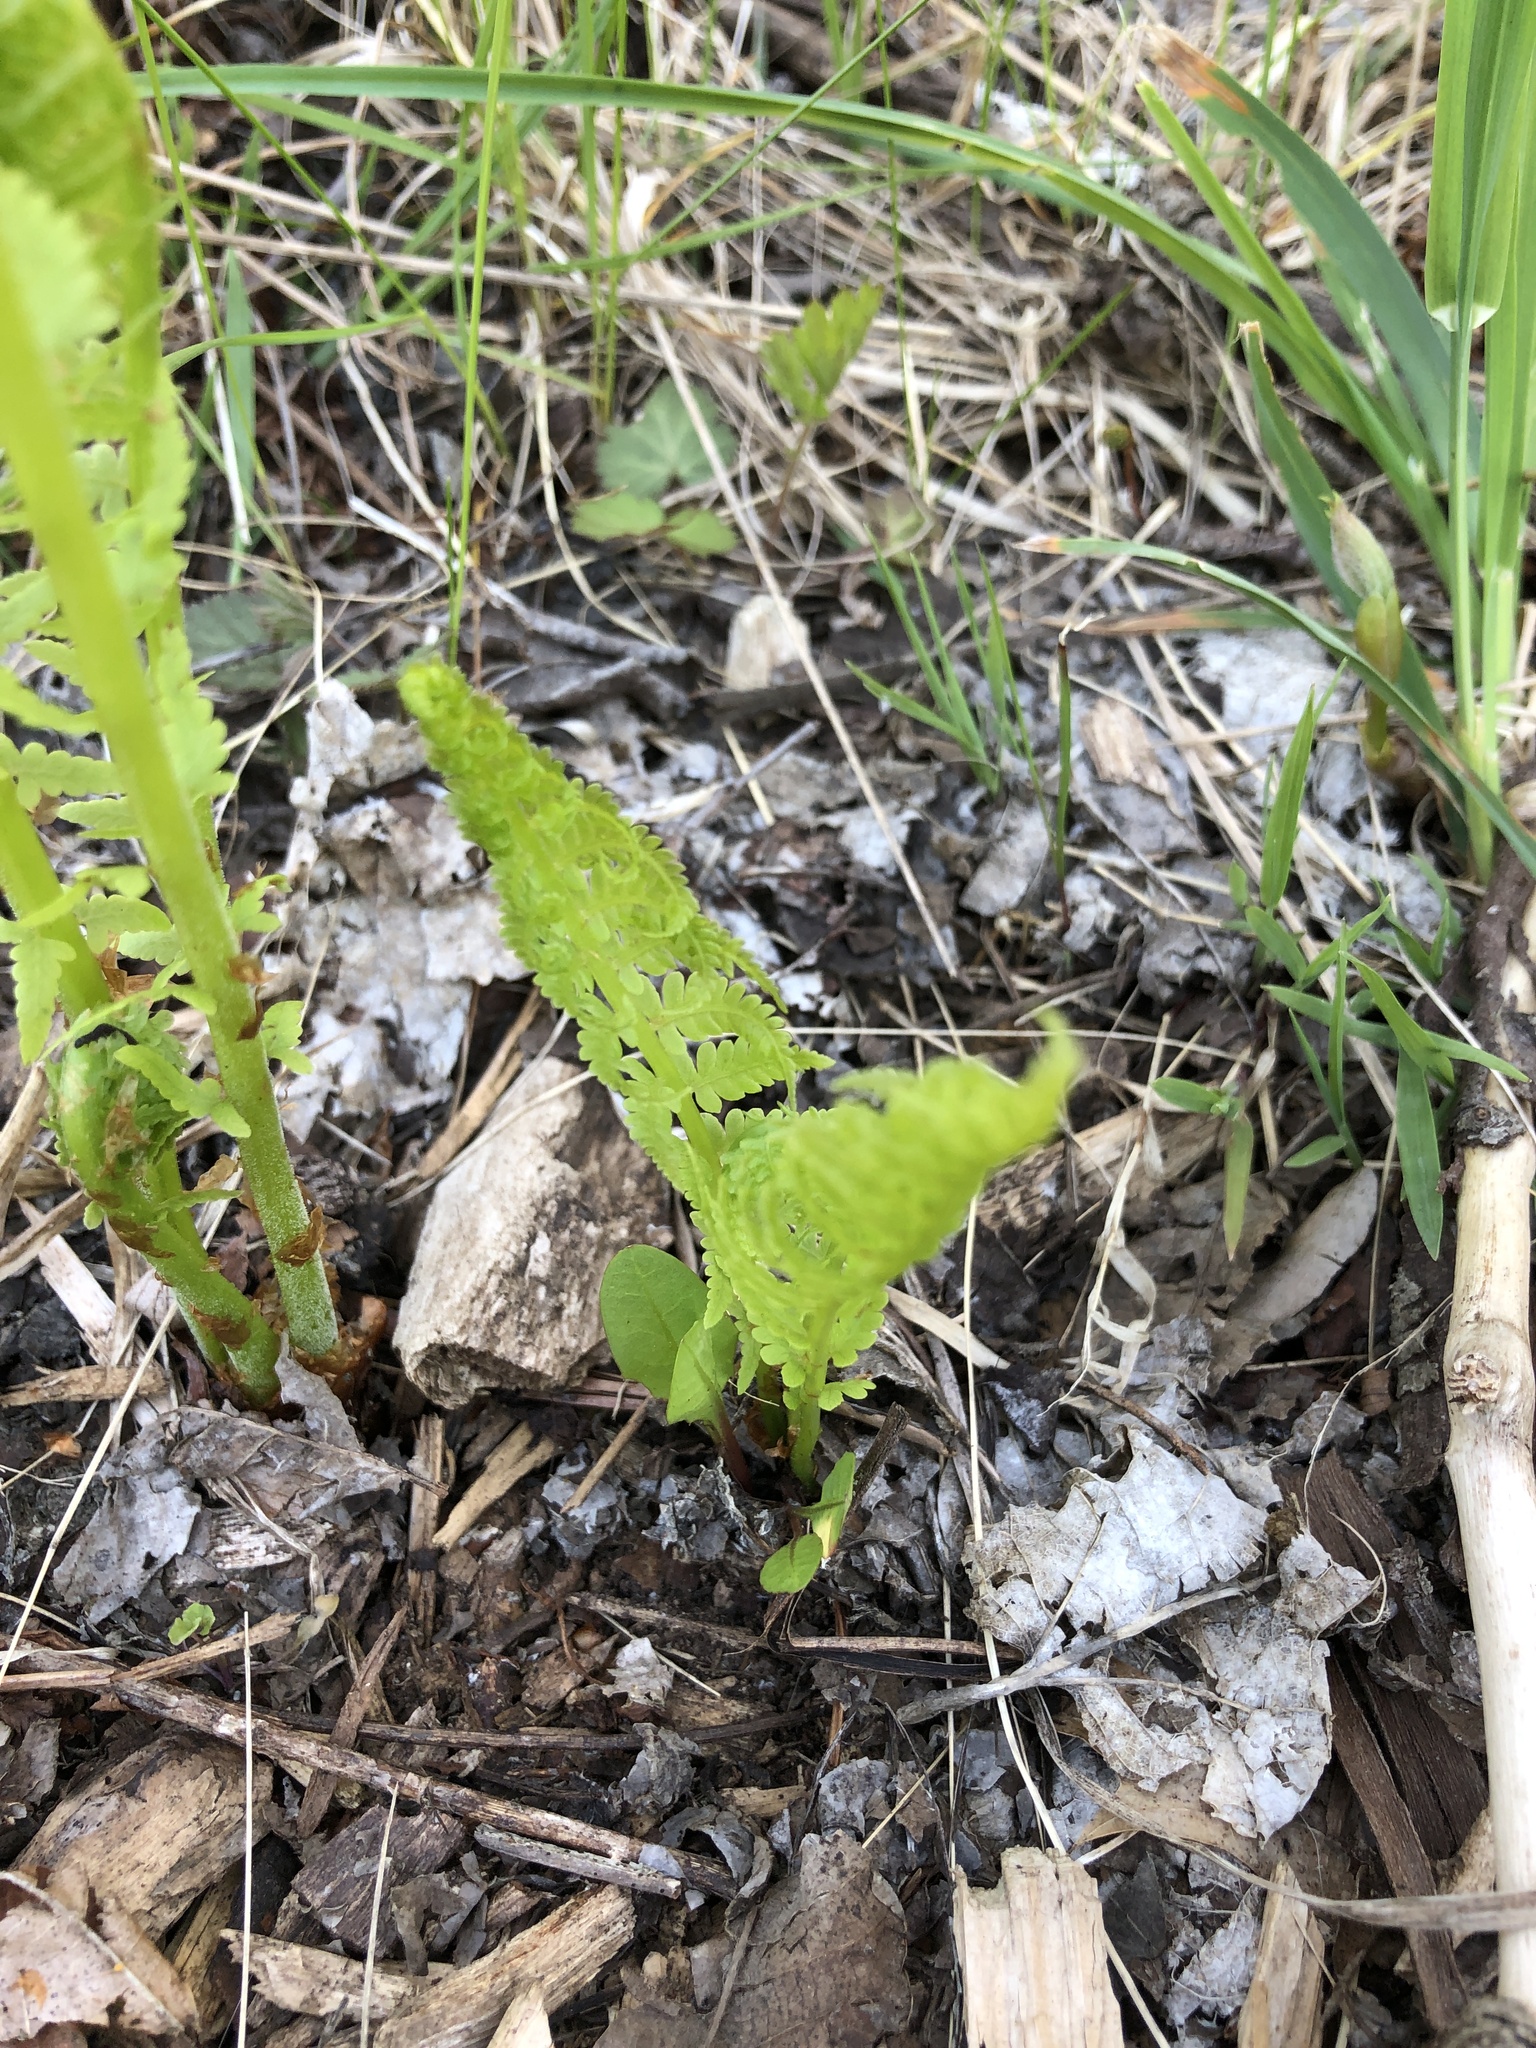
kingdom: Plantae
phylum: Tracheophyta
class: Polypodiopsida
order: Polypodiales
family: Onocleaceae
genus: Matteuccia
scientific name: Matteuccia struthiopteris
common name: Ostrich fern
